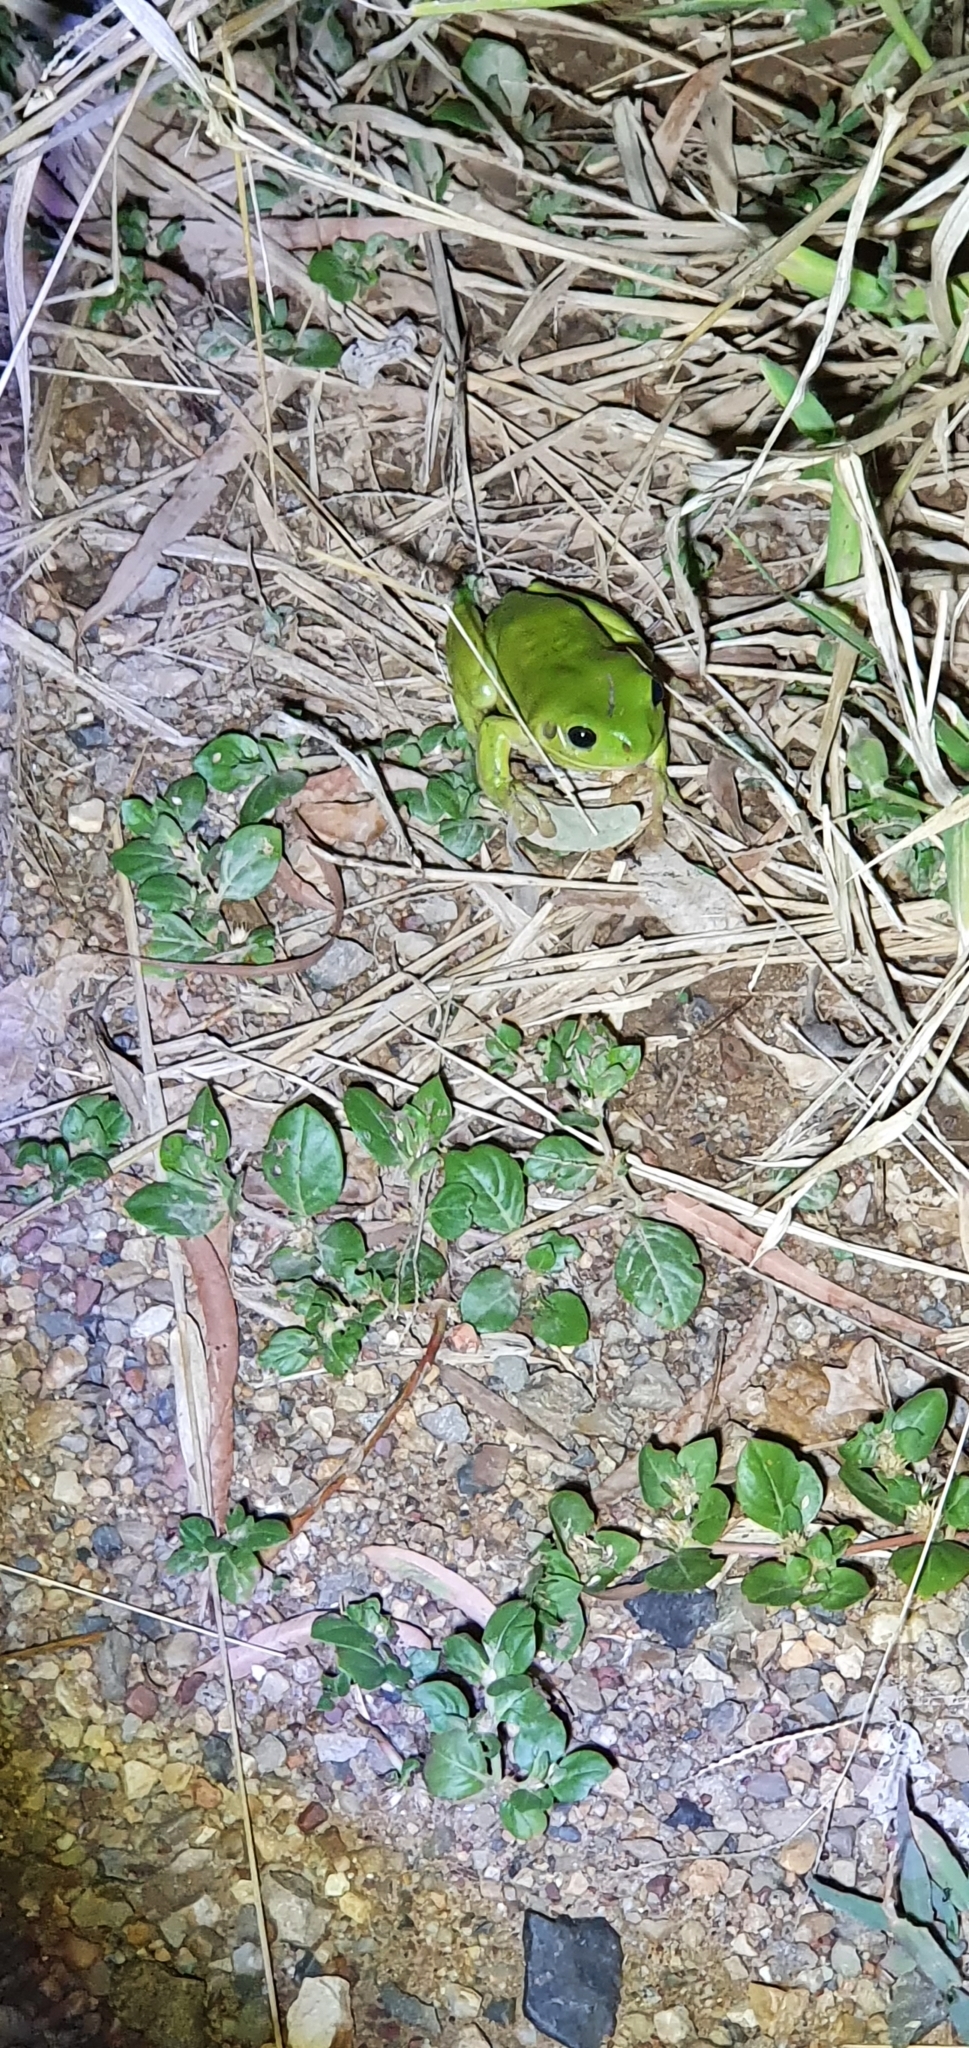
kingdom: Animalia
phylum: Chordata
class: Amphibia
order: Anura
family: Pelodryadidae
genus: Ranoidea
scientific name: Ranoidea caerulea
